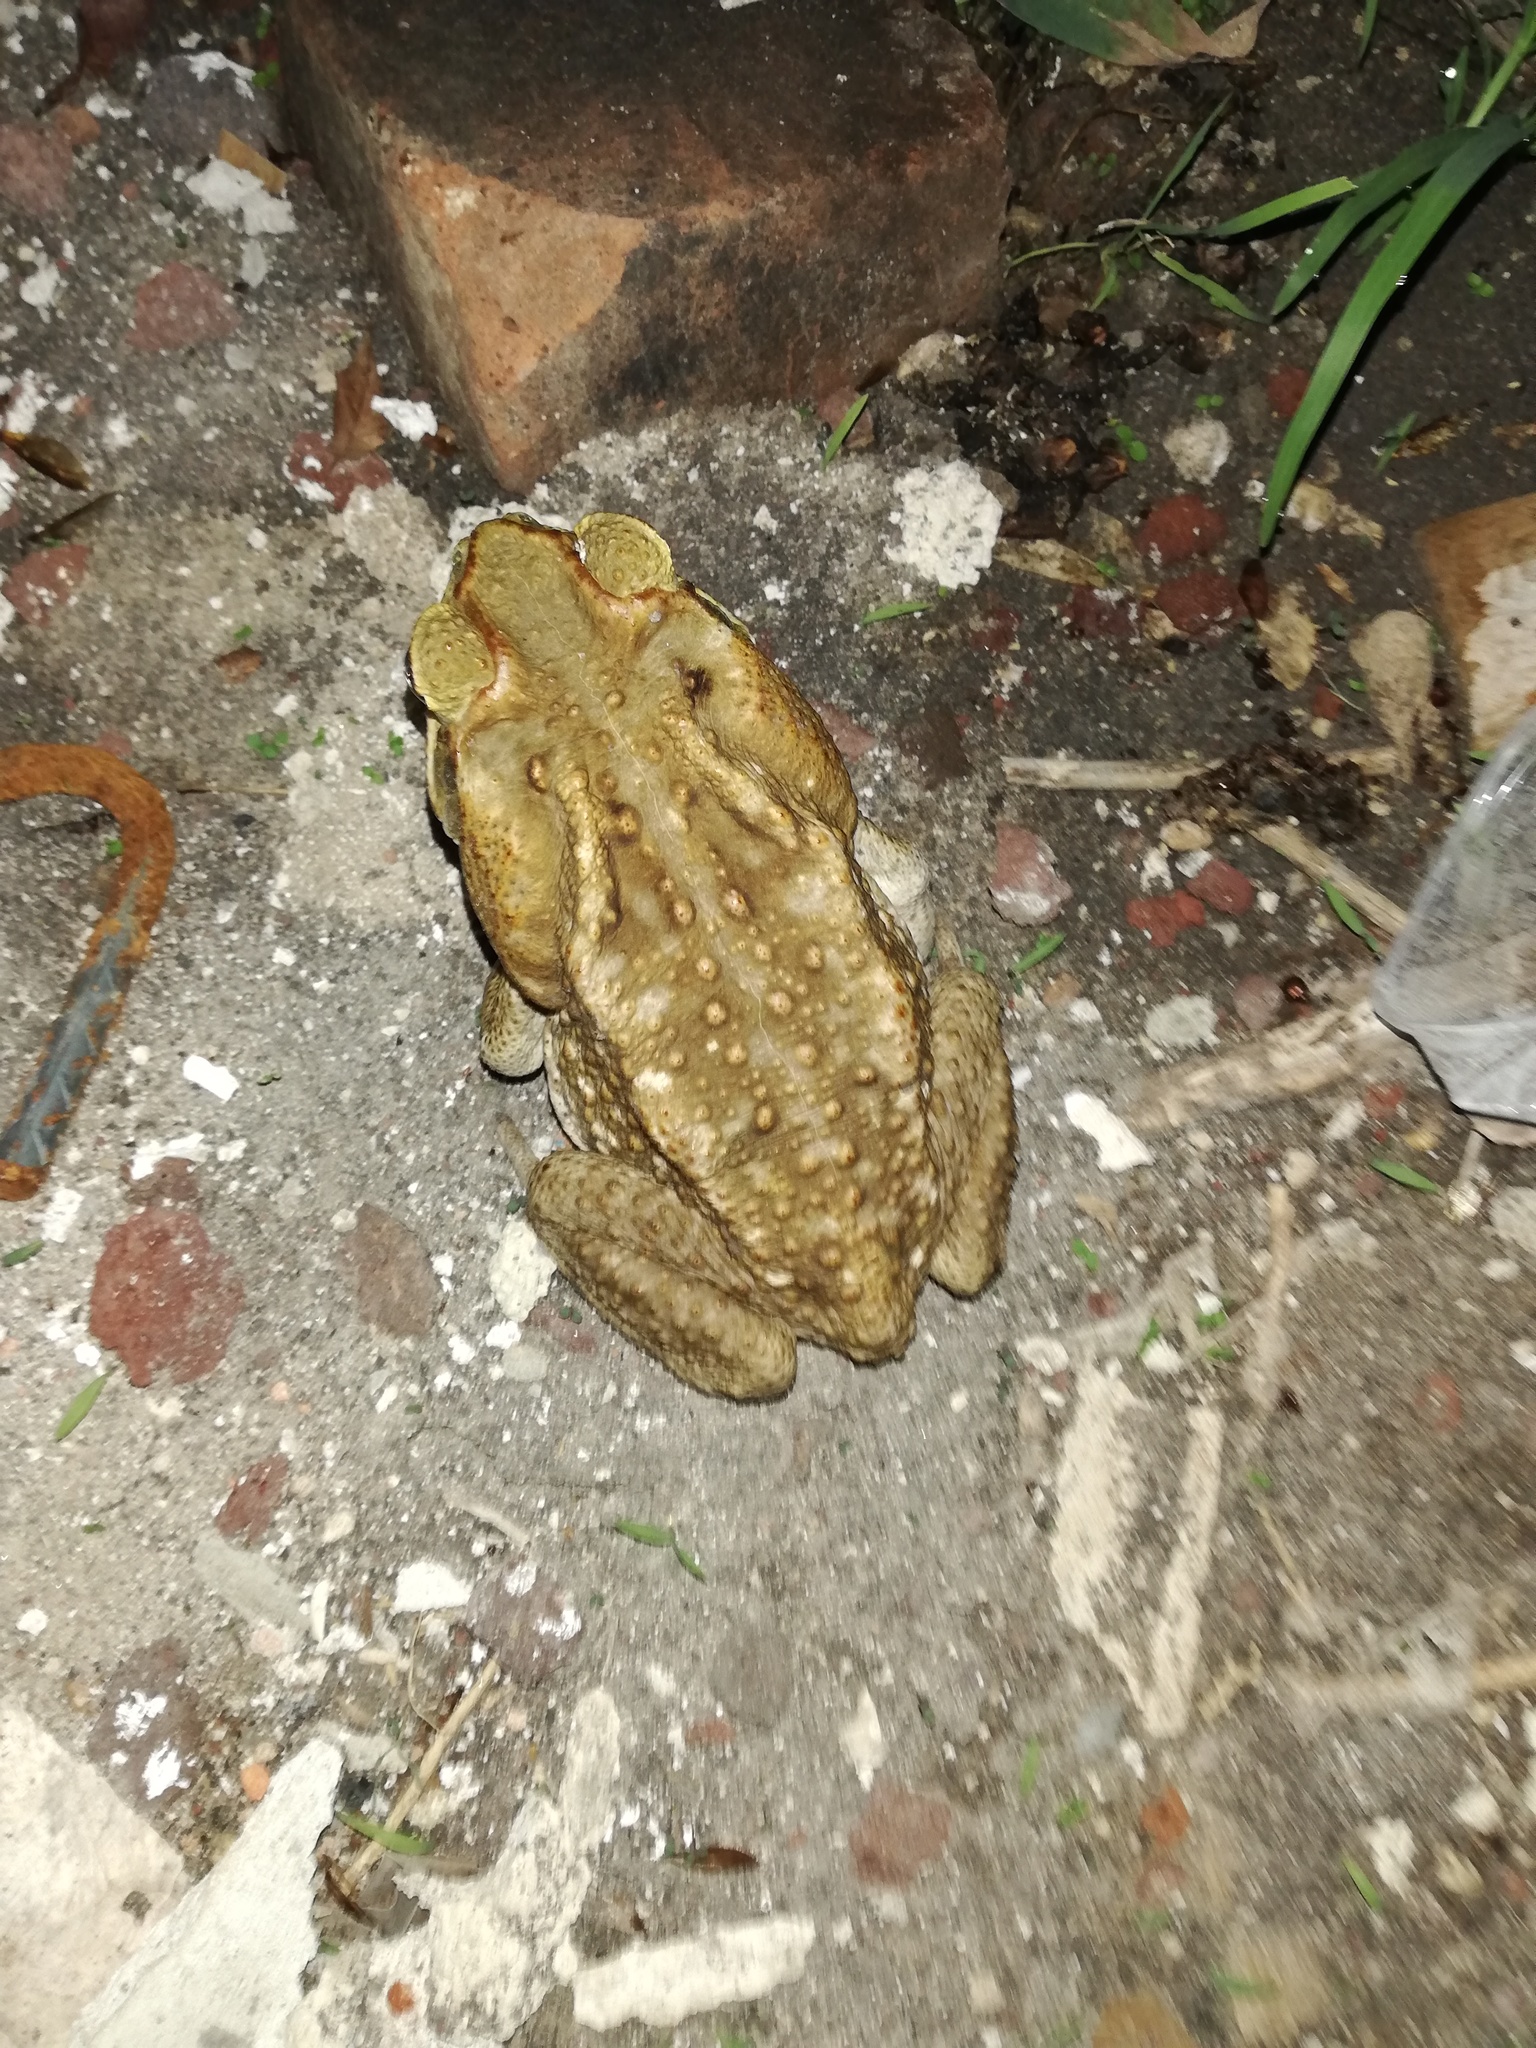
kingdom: Animalia
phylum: Chordata
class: Amphibia
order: Anura
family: Bufonidae
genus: Rhinella
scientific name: Rhinella horribilis
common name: Mesoamerican cane toad
